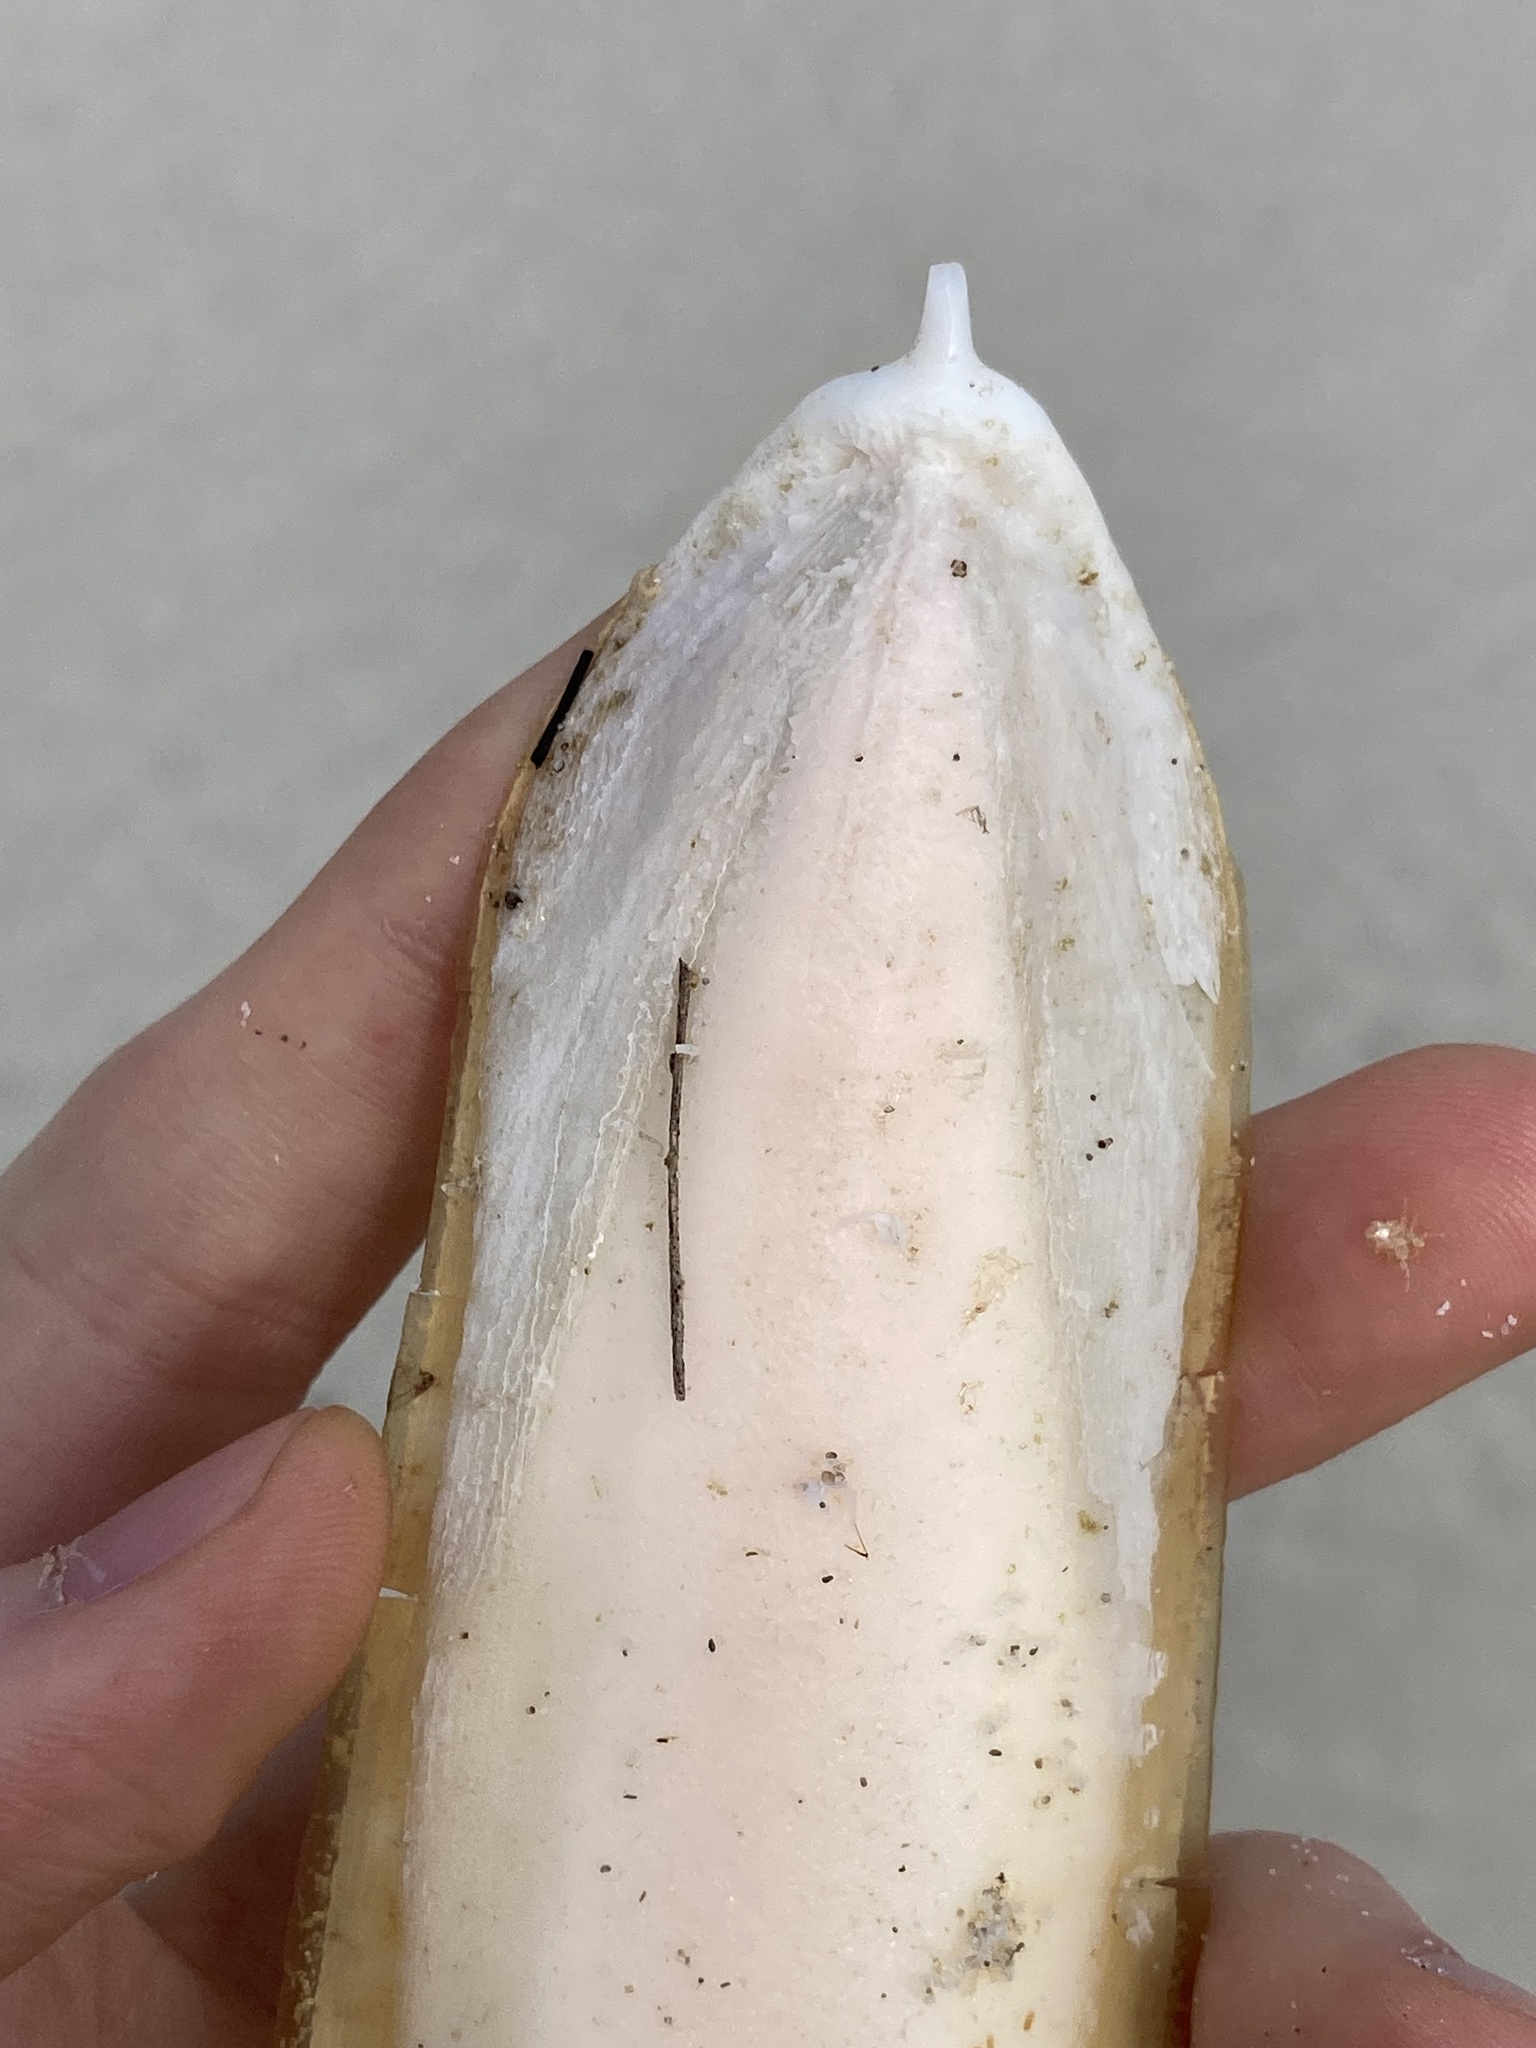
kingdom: Animalia
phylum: Mollusca
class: Cephalopoda
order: Sepiida
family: Sepiidae
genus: Ascarosepion
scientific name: Ascarosepion novaehollandiae
